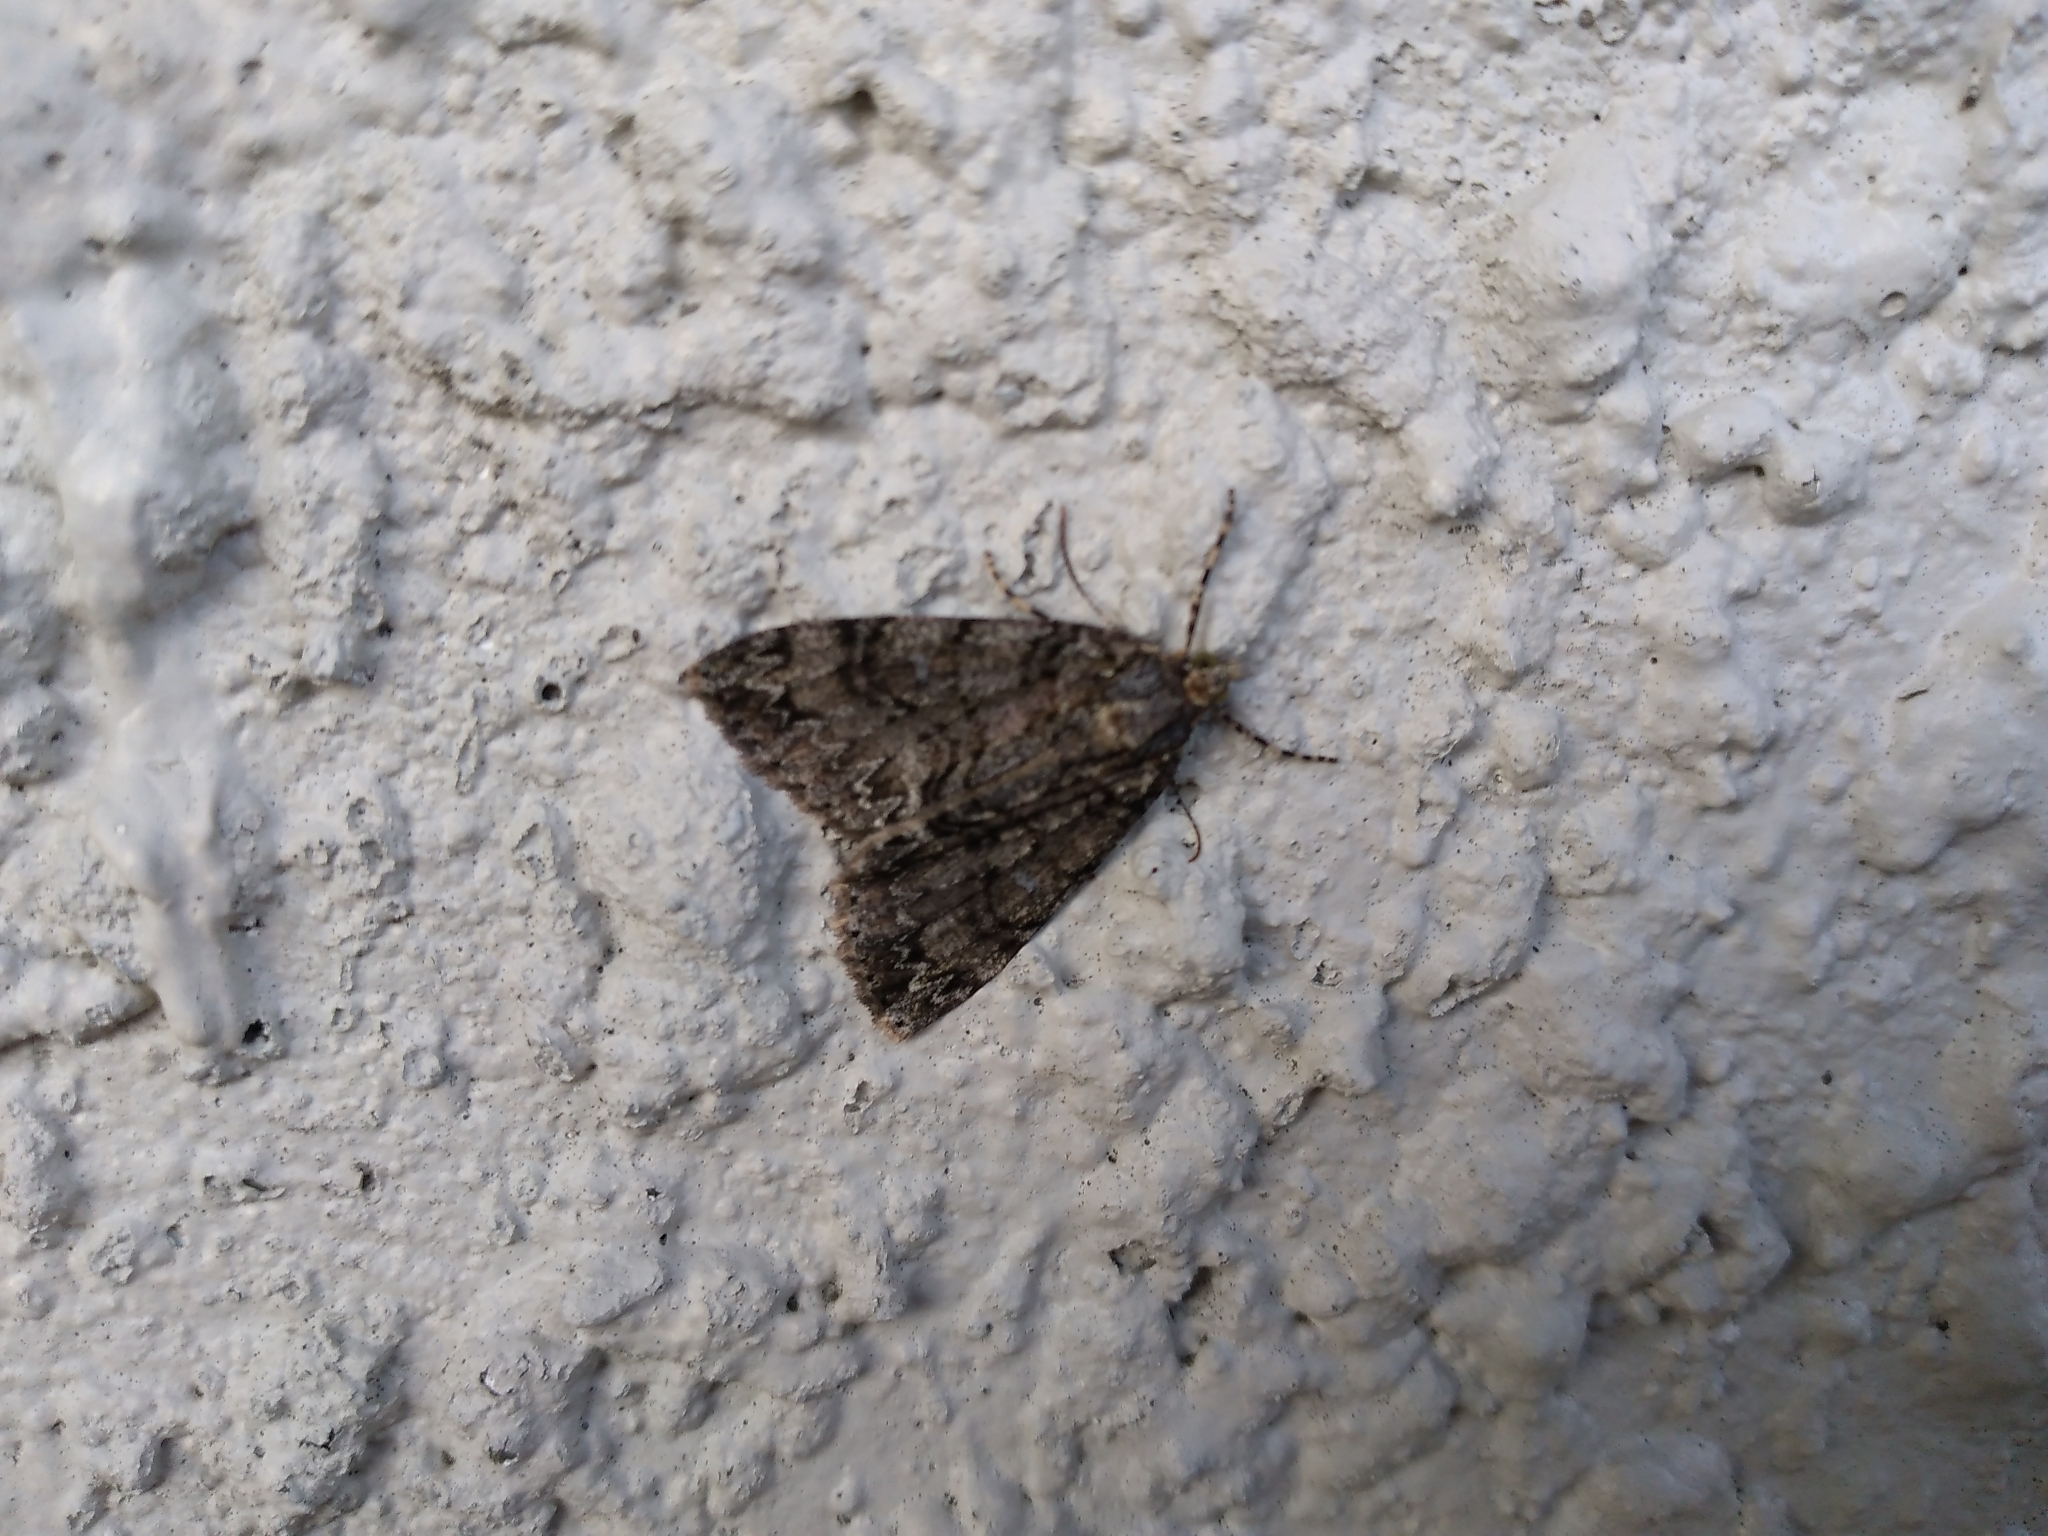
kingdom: Animalia
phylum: Arthropoda
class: Insecta
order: Lepidoptera
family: Geometridae
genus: Pseudocoremia
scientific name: Pseudocoremia suavis
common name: Common forest looper
